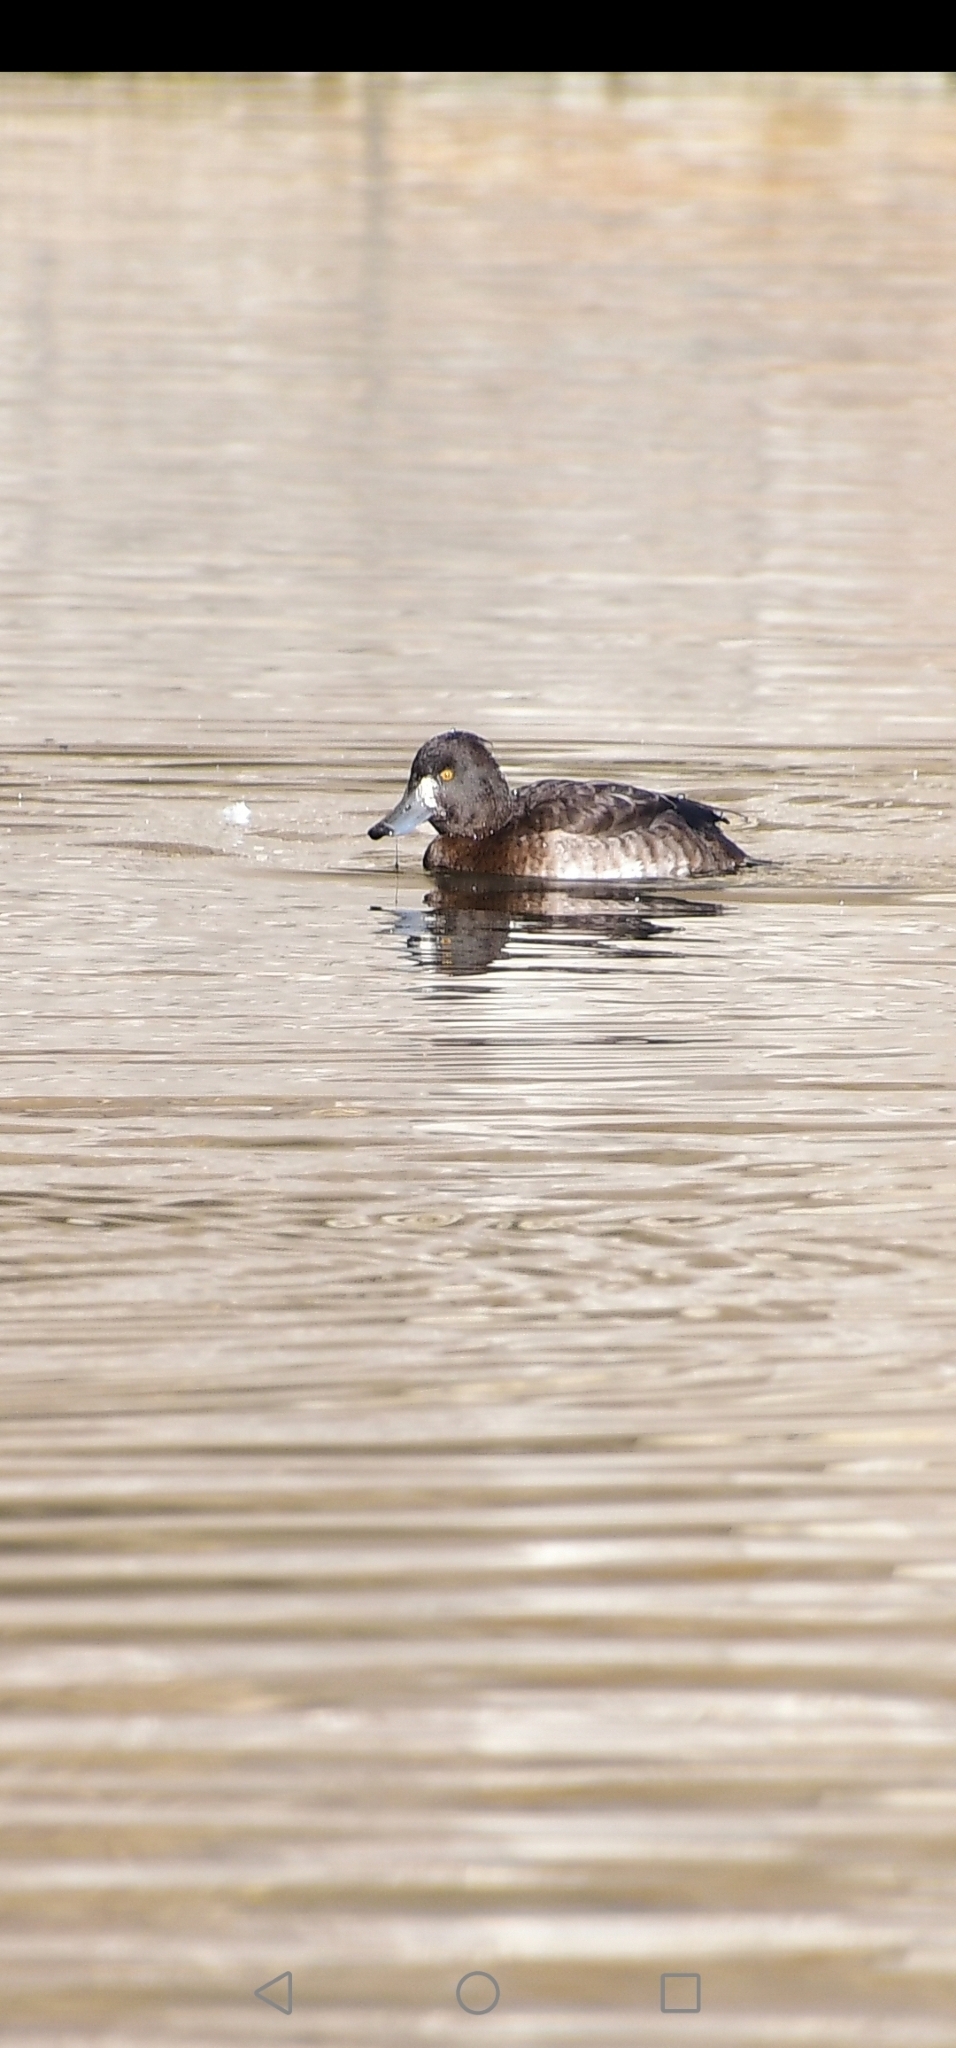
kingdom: Animalia
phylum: Chordata
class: Aves
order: Anseriformes
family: Anatidae
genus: Aythya
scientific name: Aythya fuligula
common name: Tufted duck
